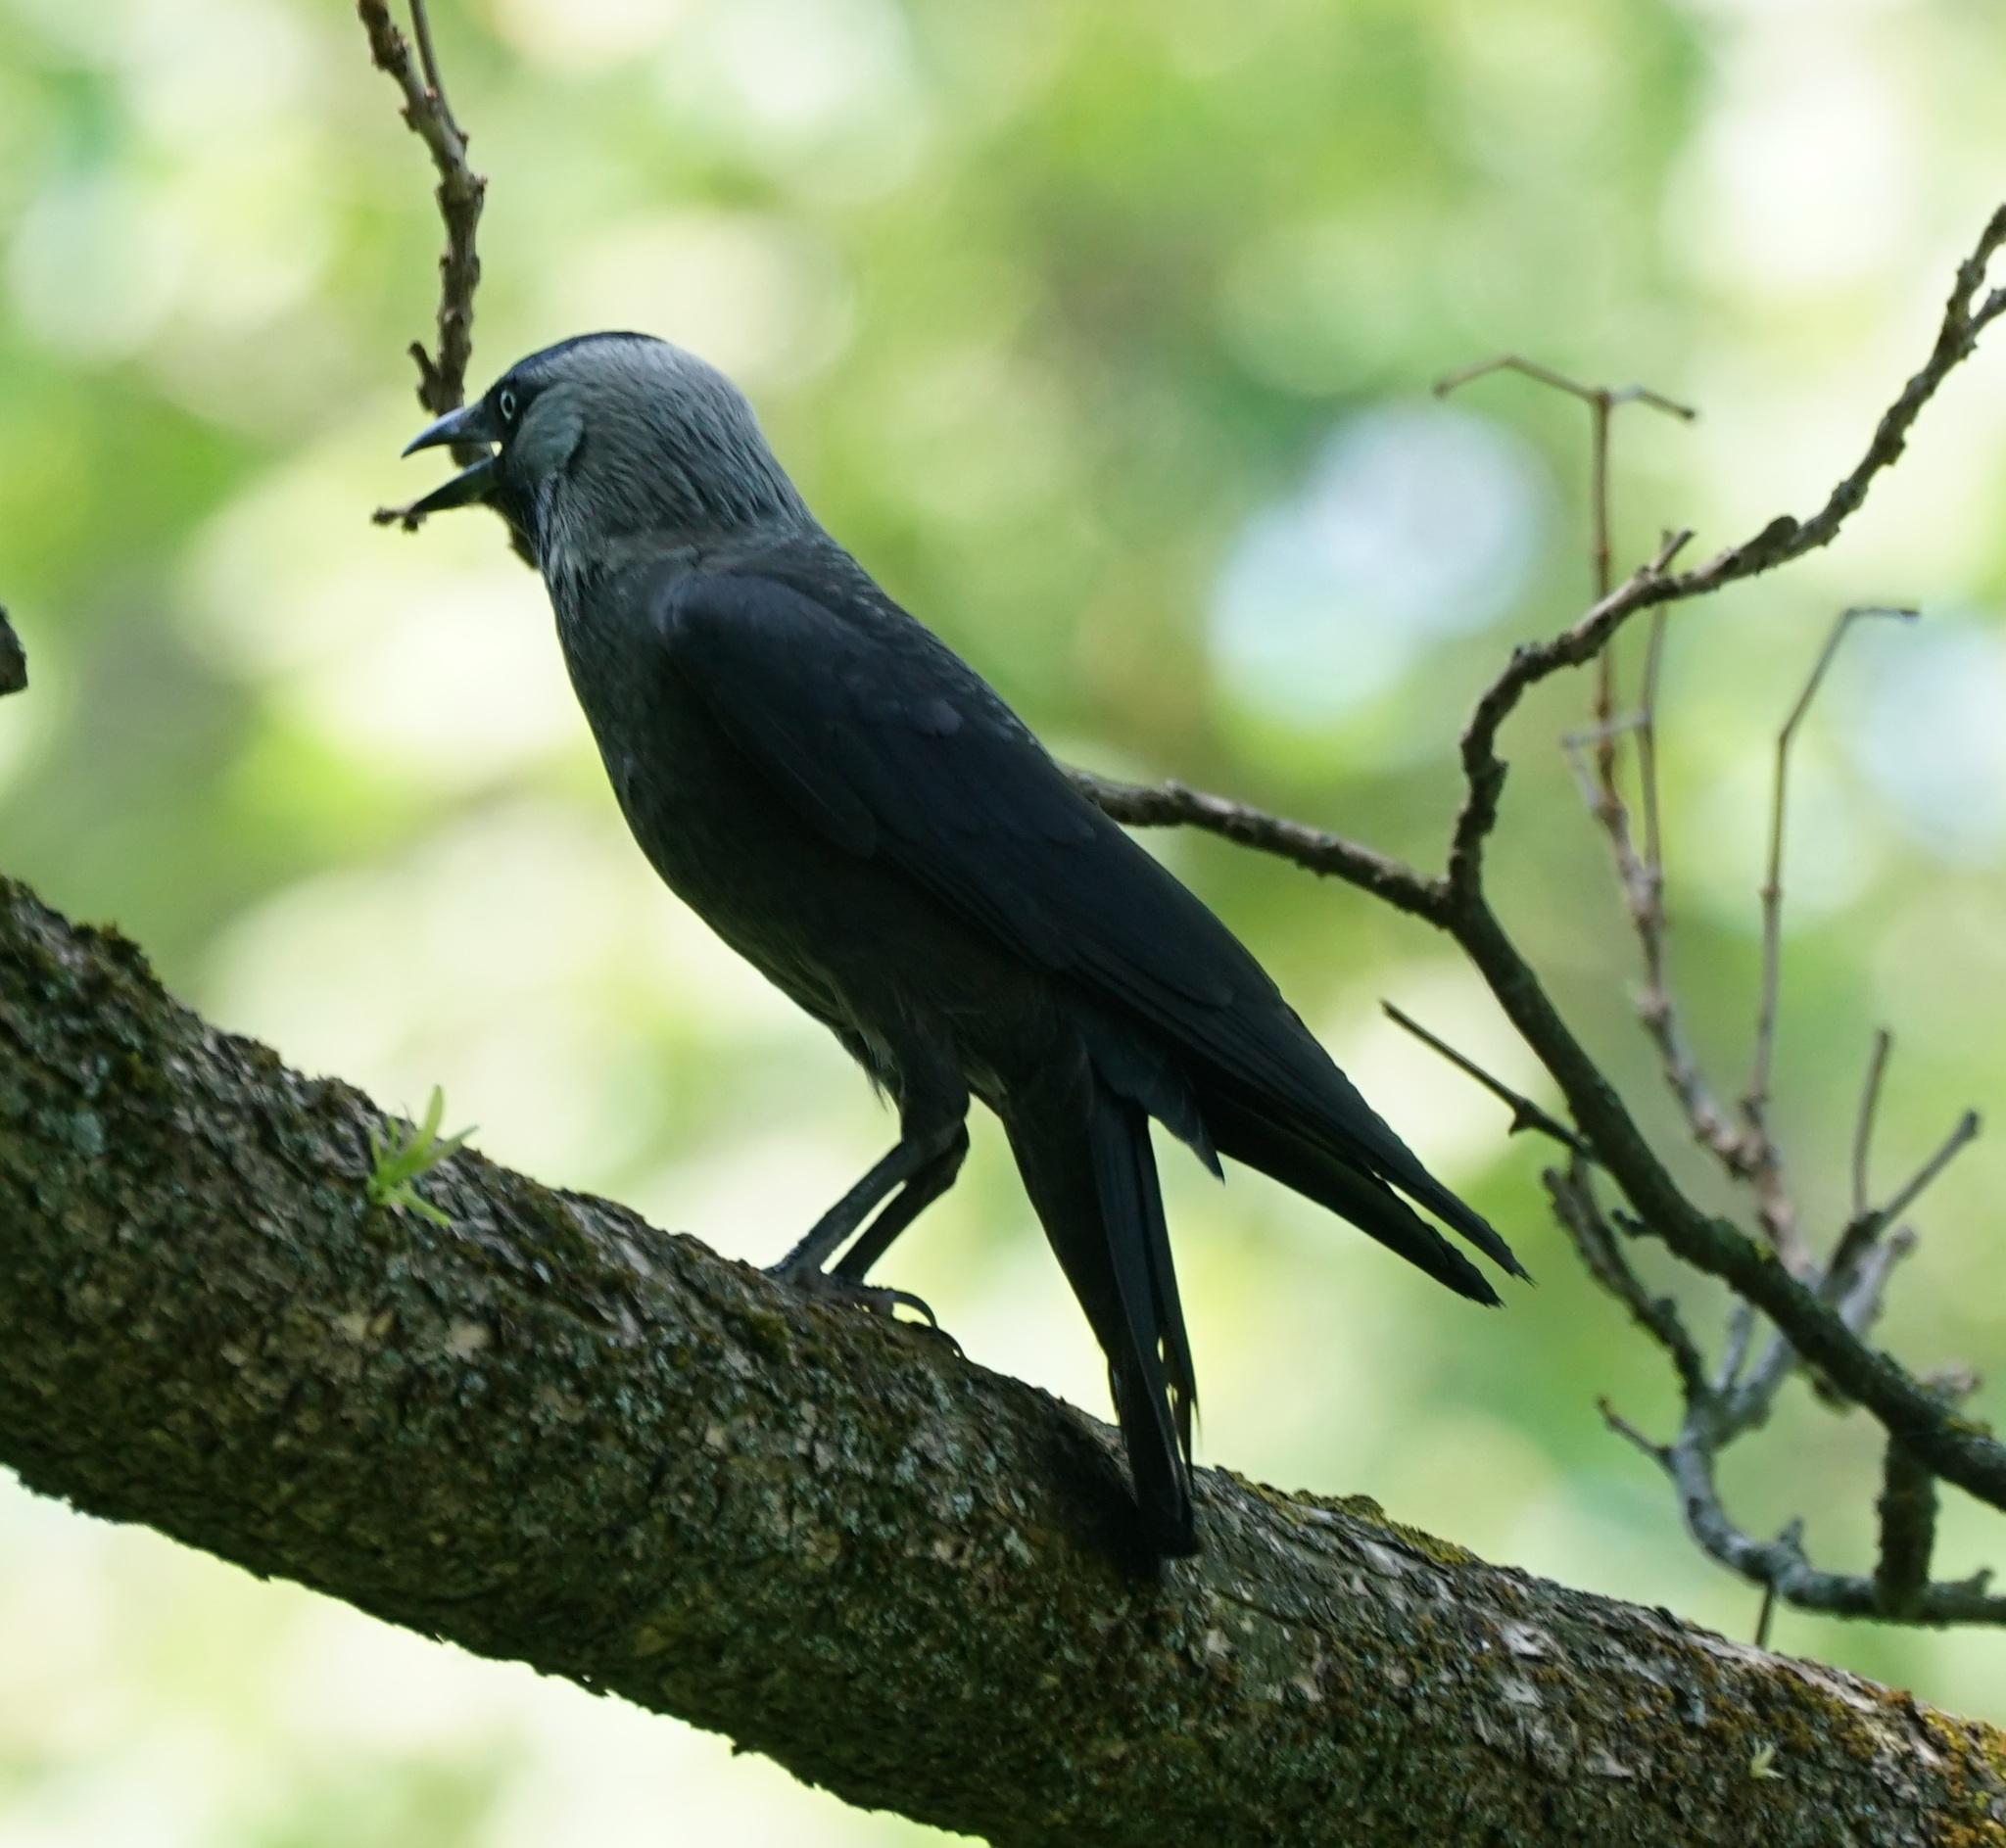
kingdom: Animalia
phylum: Chordata
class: Aves
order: Passeriformes
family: Corvidae
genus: Coloeus
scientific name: Coloeus monedula
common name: Western jackdaw
